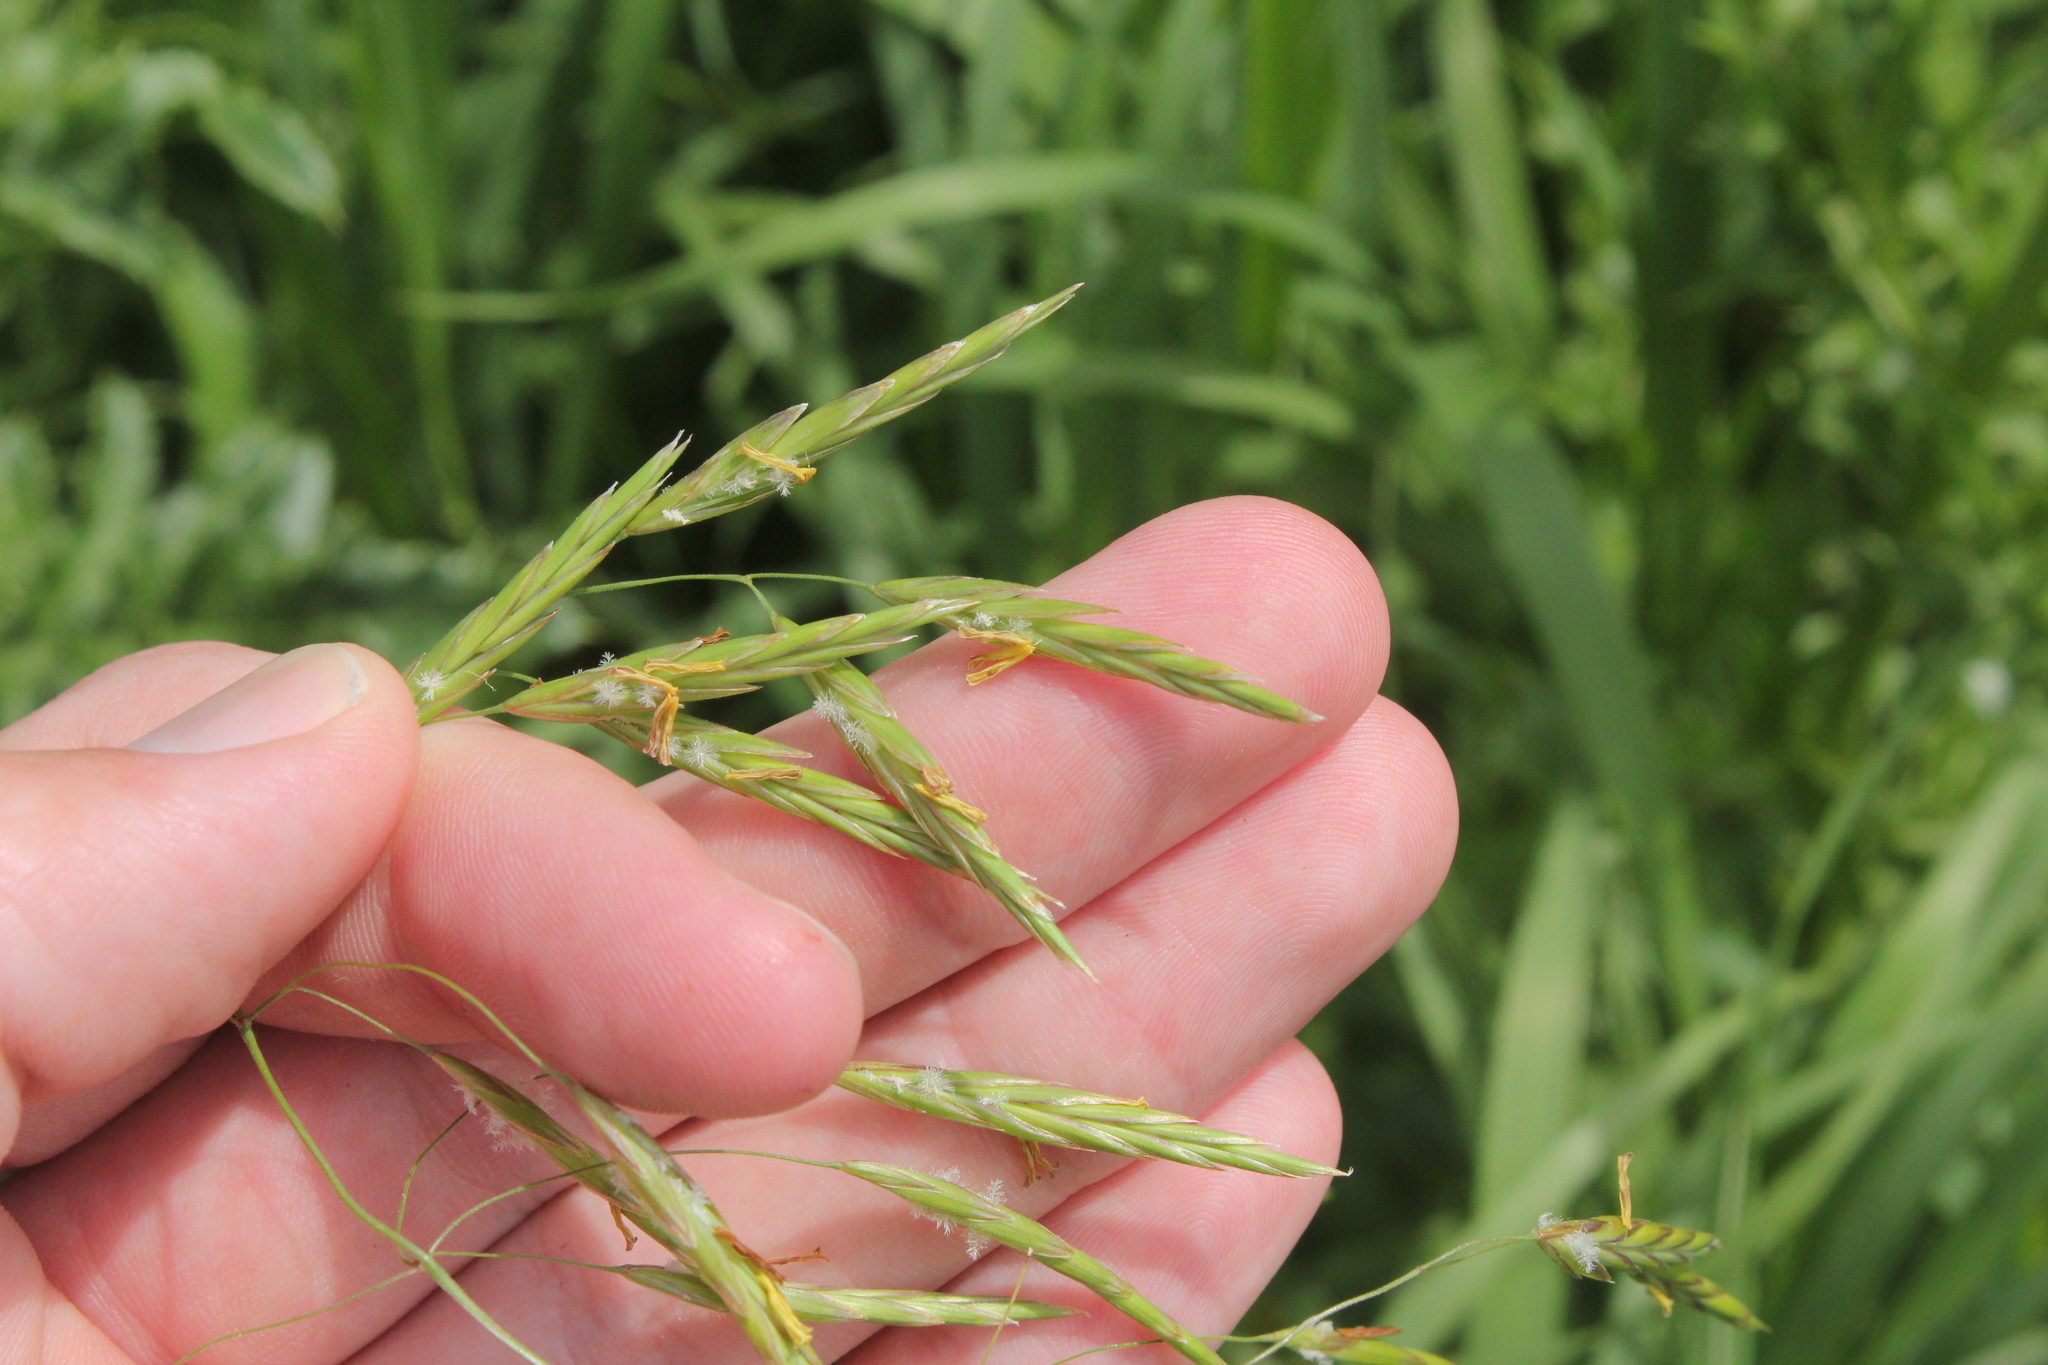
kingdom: Plantae
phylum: Tracheophyta
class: Liliopsida
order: Poales
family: Poaceae
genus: Bromus
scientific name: Bromus inermis
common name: Smooth brome
